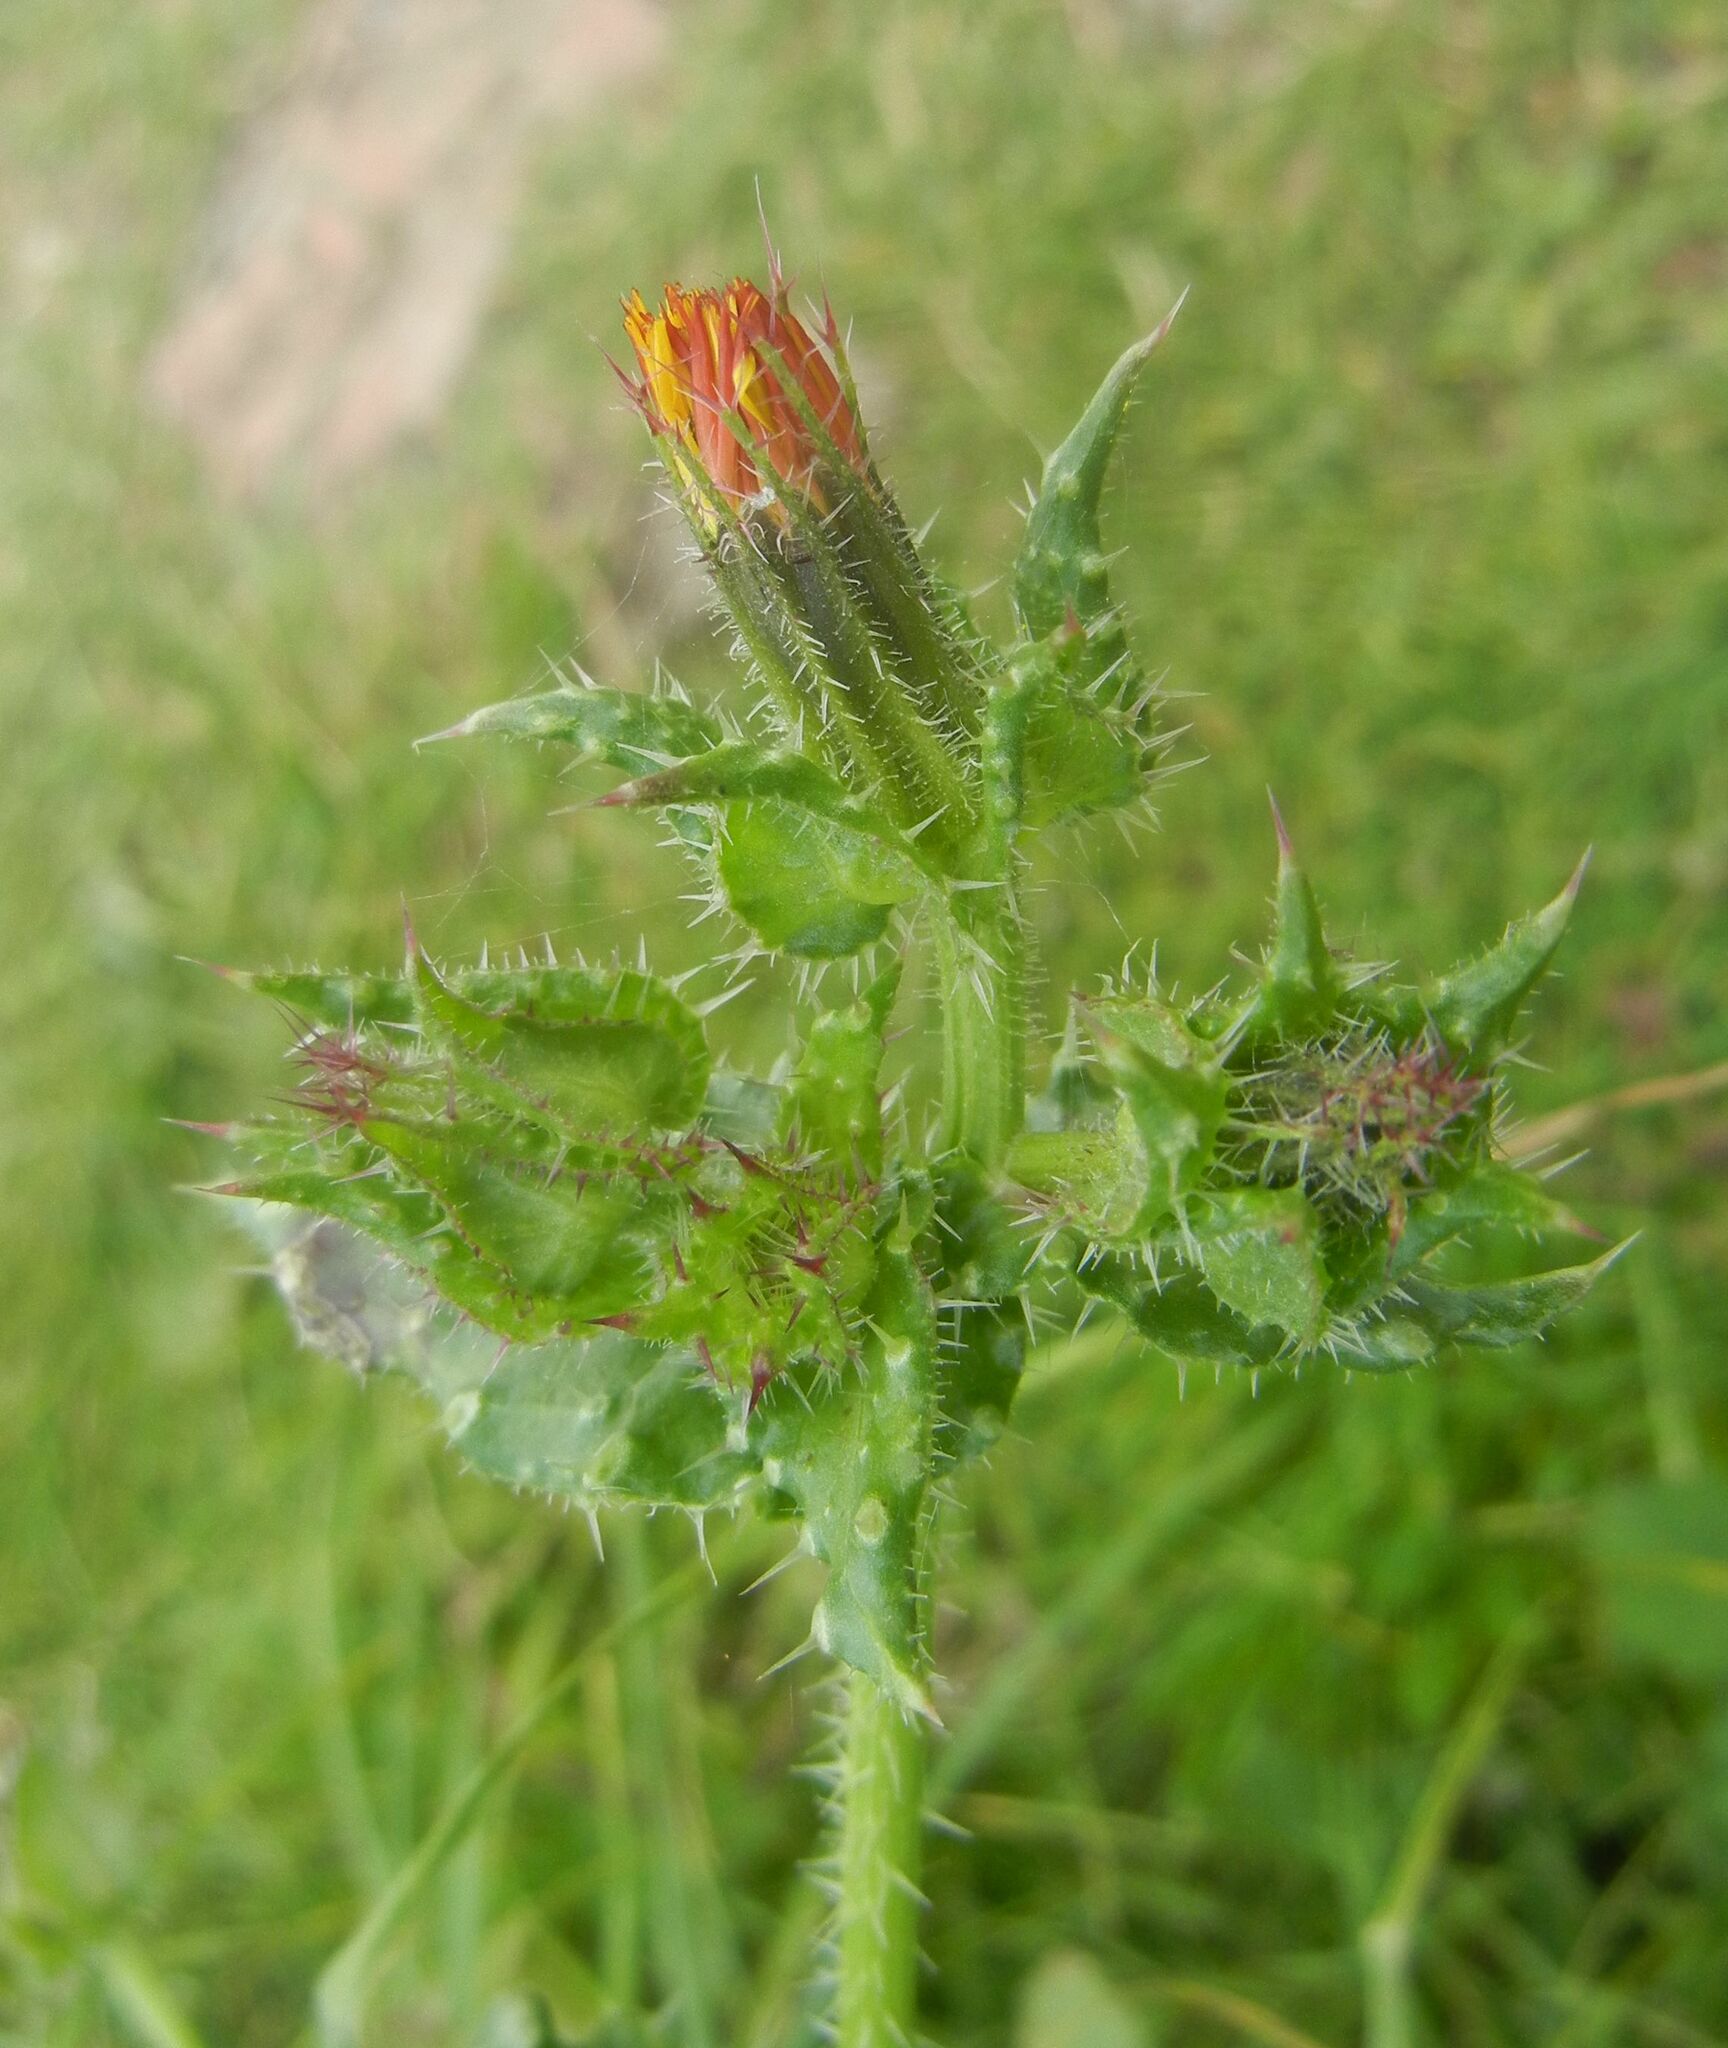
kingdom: Plantae
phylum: Tracheophyta
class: Magnoliopsida
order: Asterales
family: Asteraceae
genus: Helminthotheca
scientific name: Helminthotheca echioides
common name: Ox-tongue
